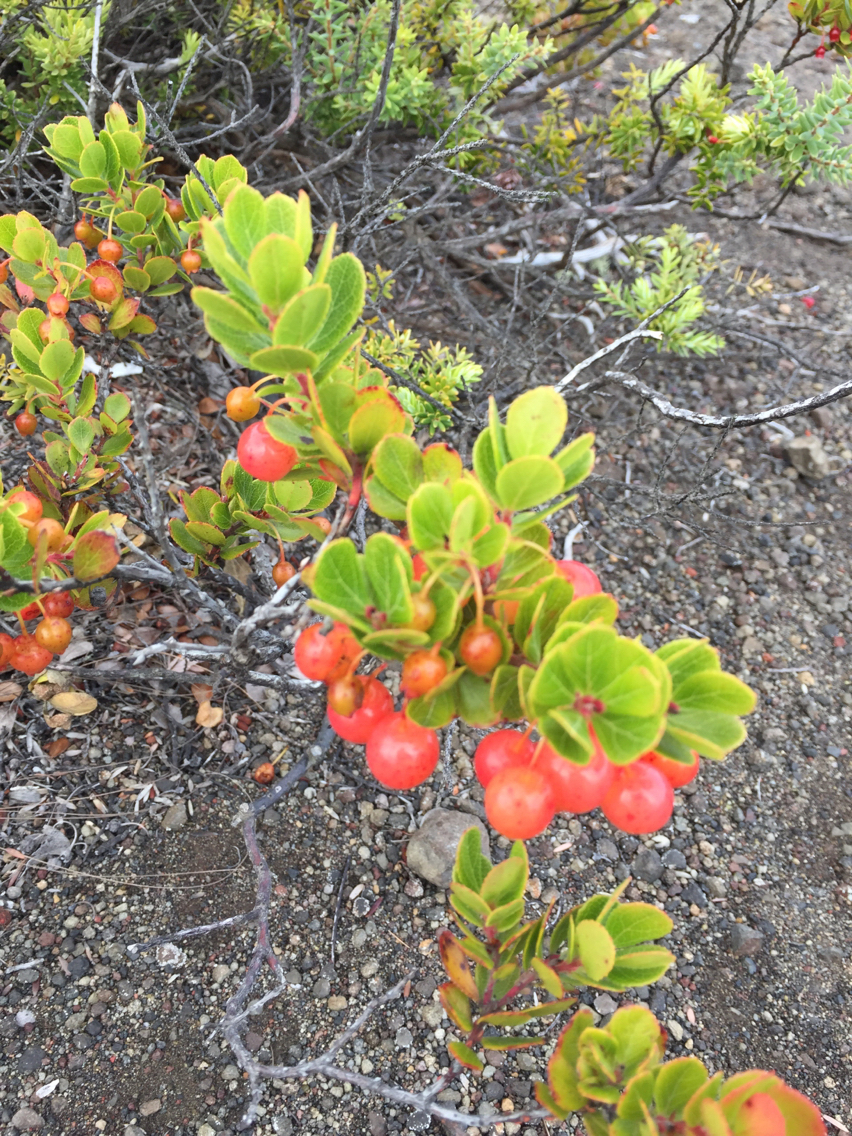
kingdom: Plantae
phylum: Tracheophyta
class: Magnoliopsida
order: Ericales
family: Ericaceae
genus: Vaccinium
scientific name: Vaccinium reticulatum
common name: Ohelo
